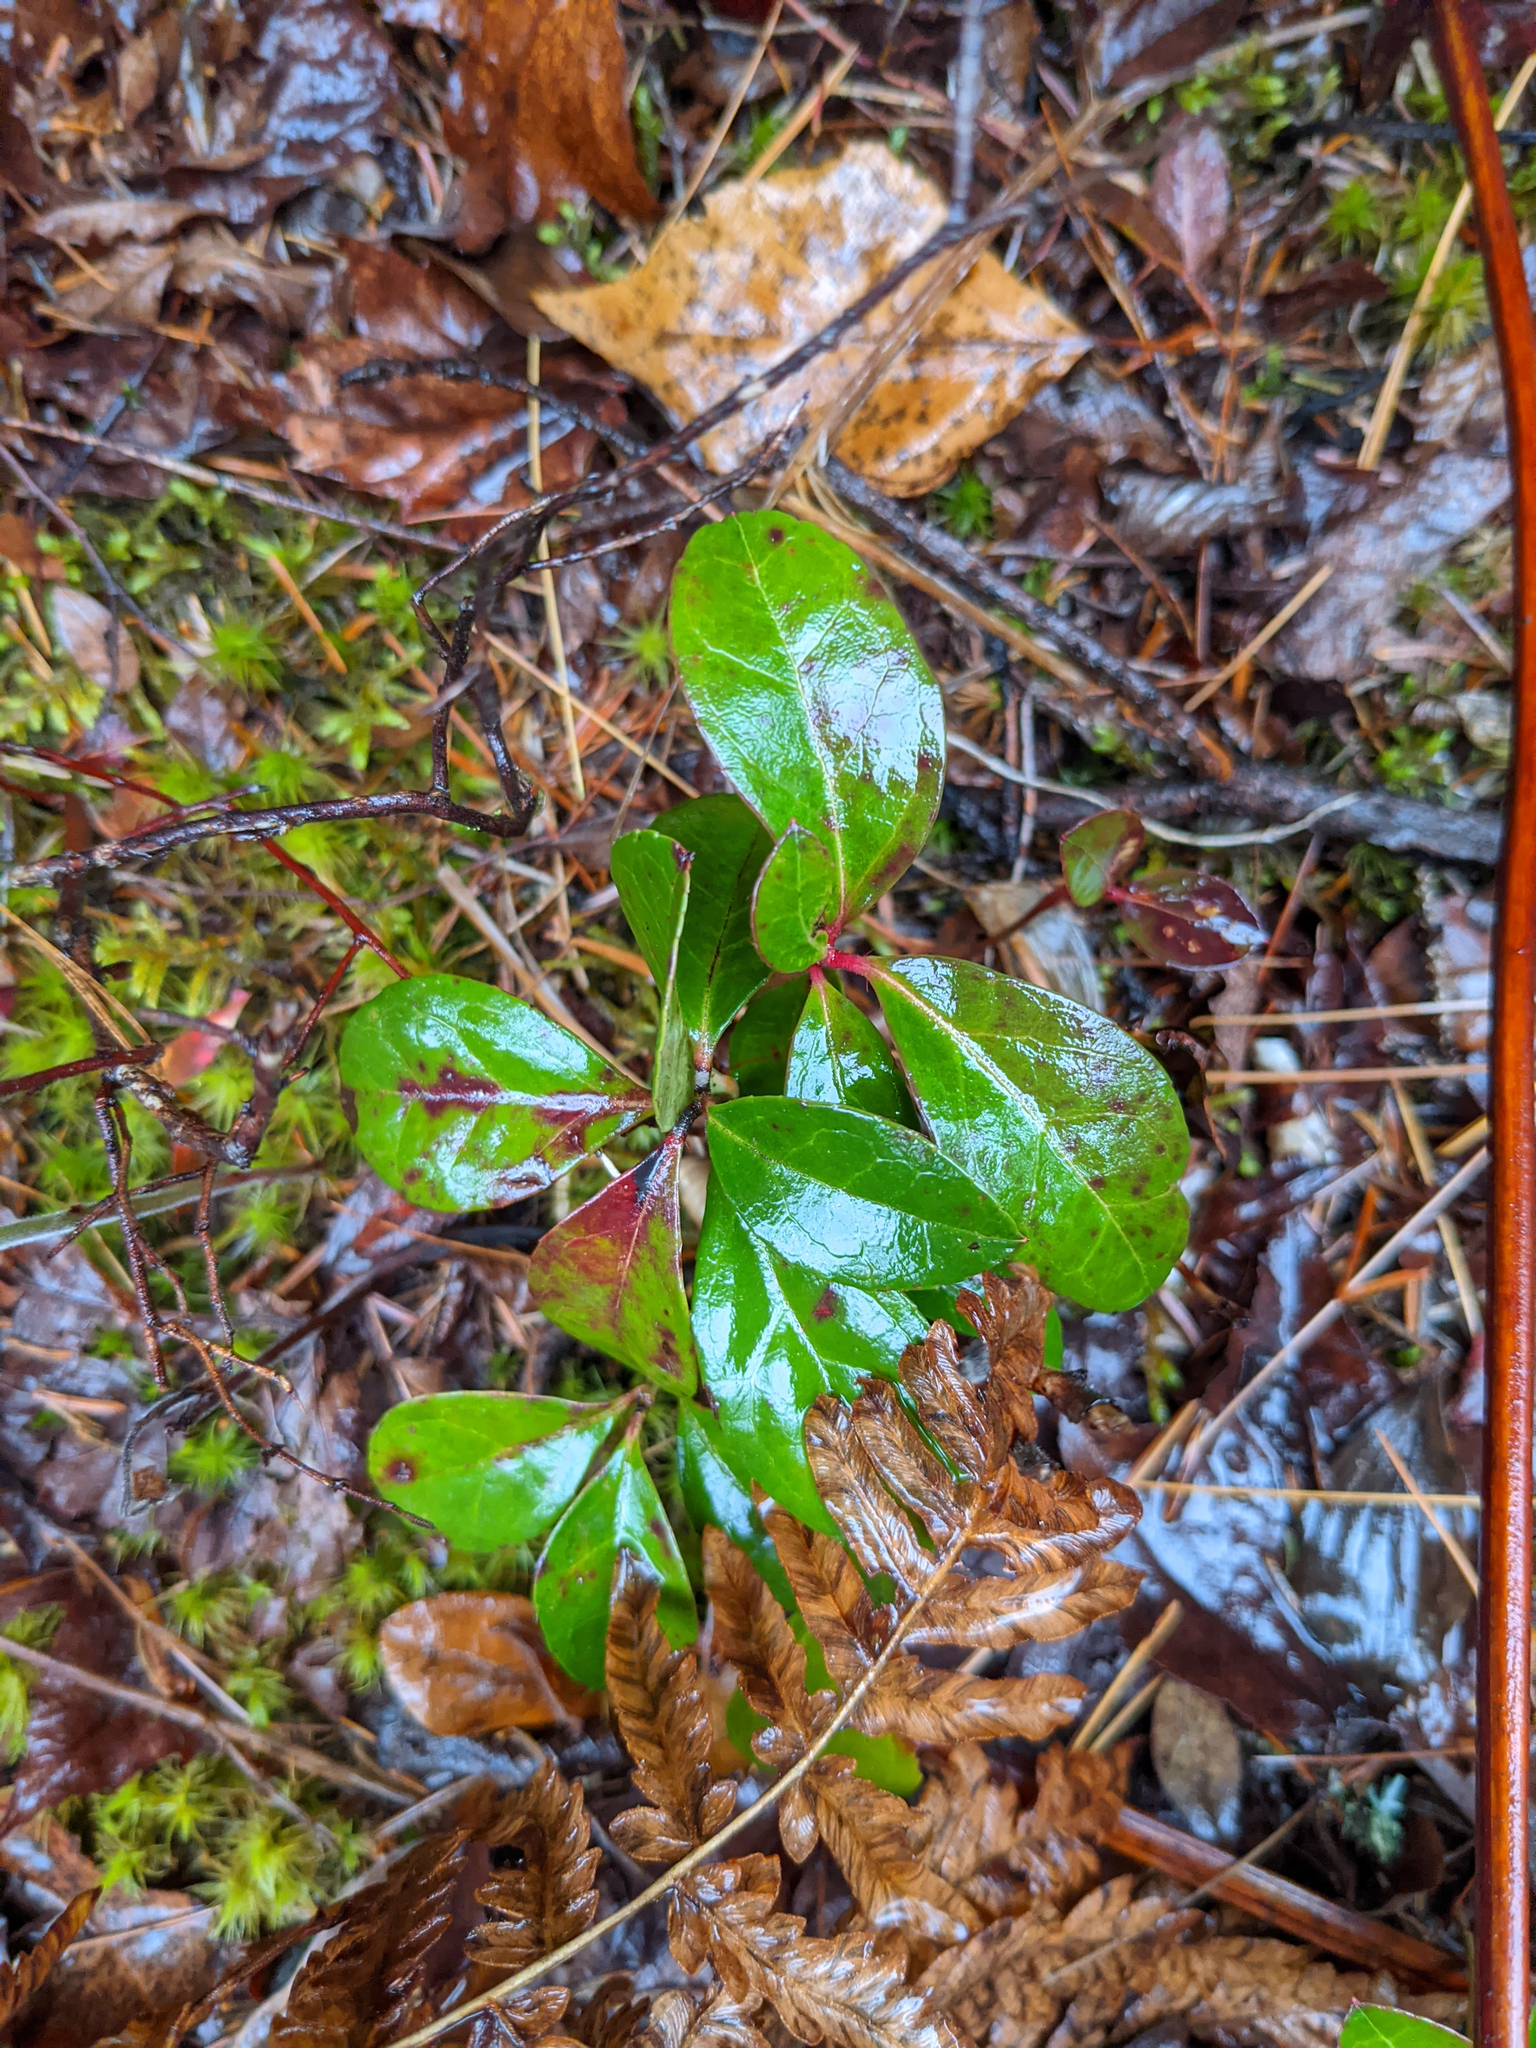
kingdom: Plantae
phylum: Tracheophyta
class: Magnoliopsida
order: Ericales
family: Ericaceae
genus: Gaultheria
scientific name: Gaultheria procumbens
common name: Checkerberry
